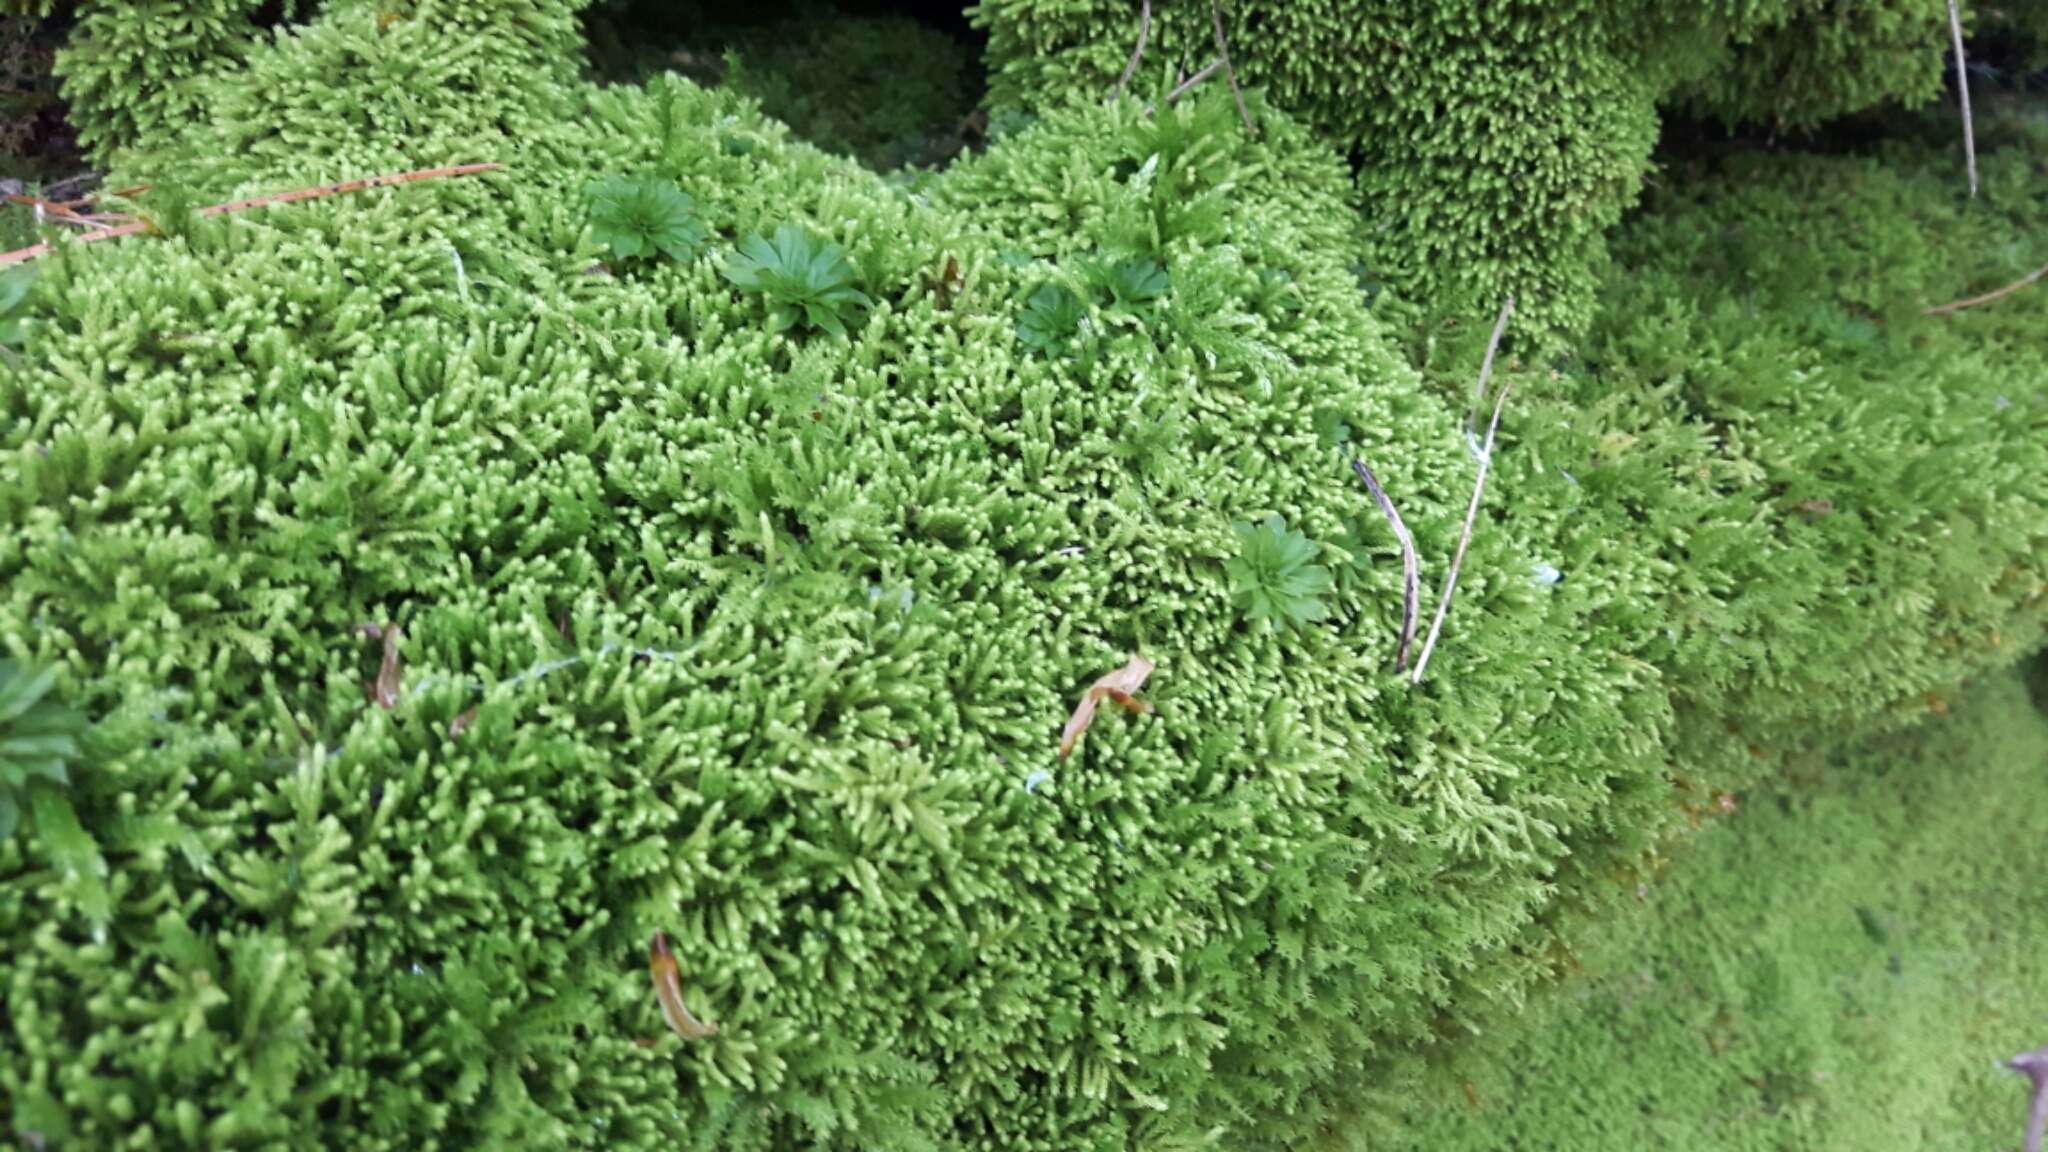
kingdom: Plantae
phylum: Bryophyta
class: Bryopsida
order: Bryales
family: Bryaceae
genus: Rhodobryum
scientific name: Rhodobryum ontariense
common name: Ontario rhodobryum moss
